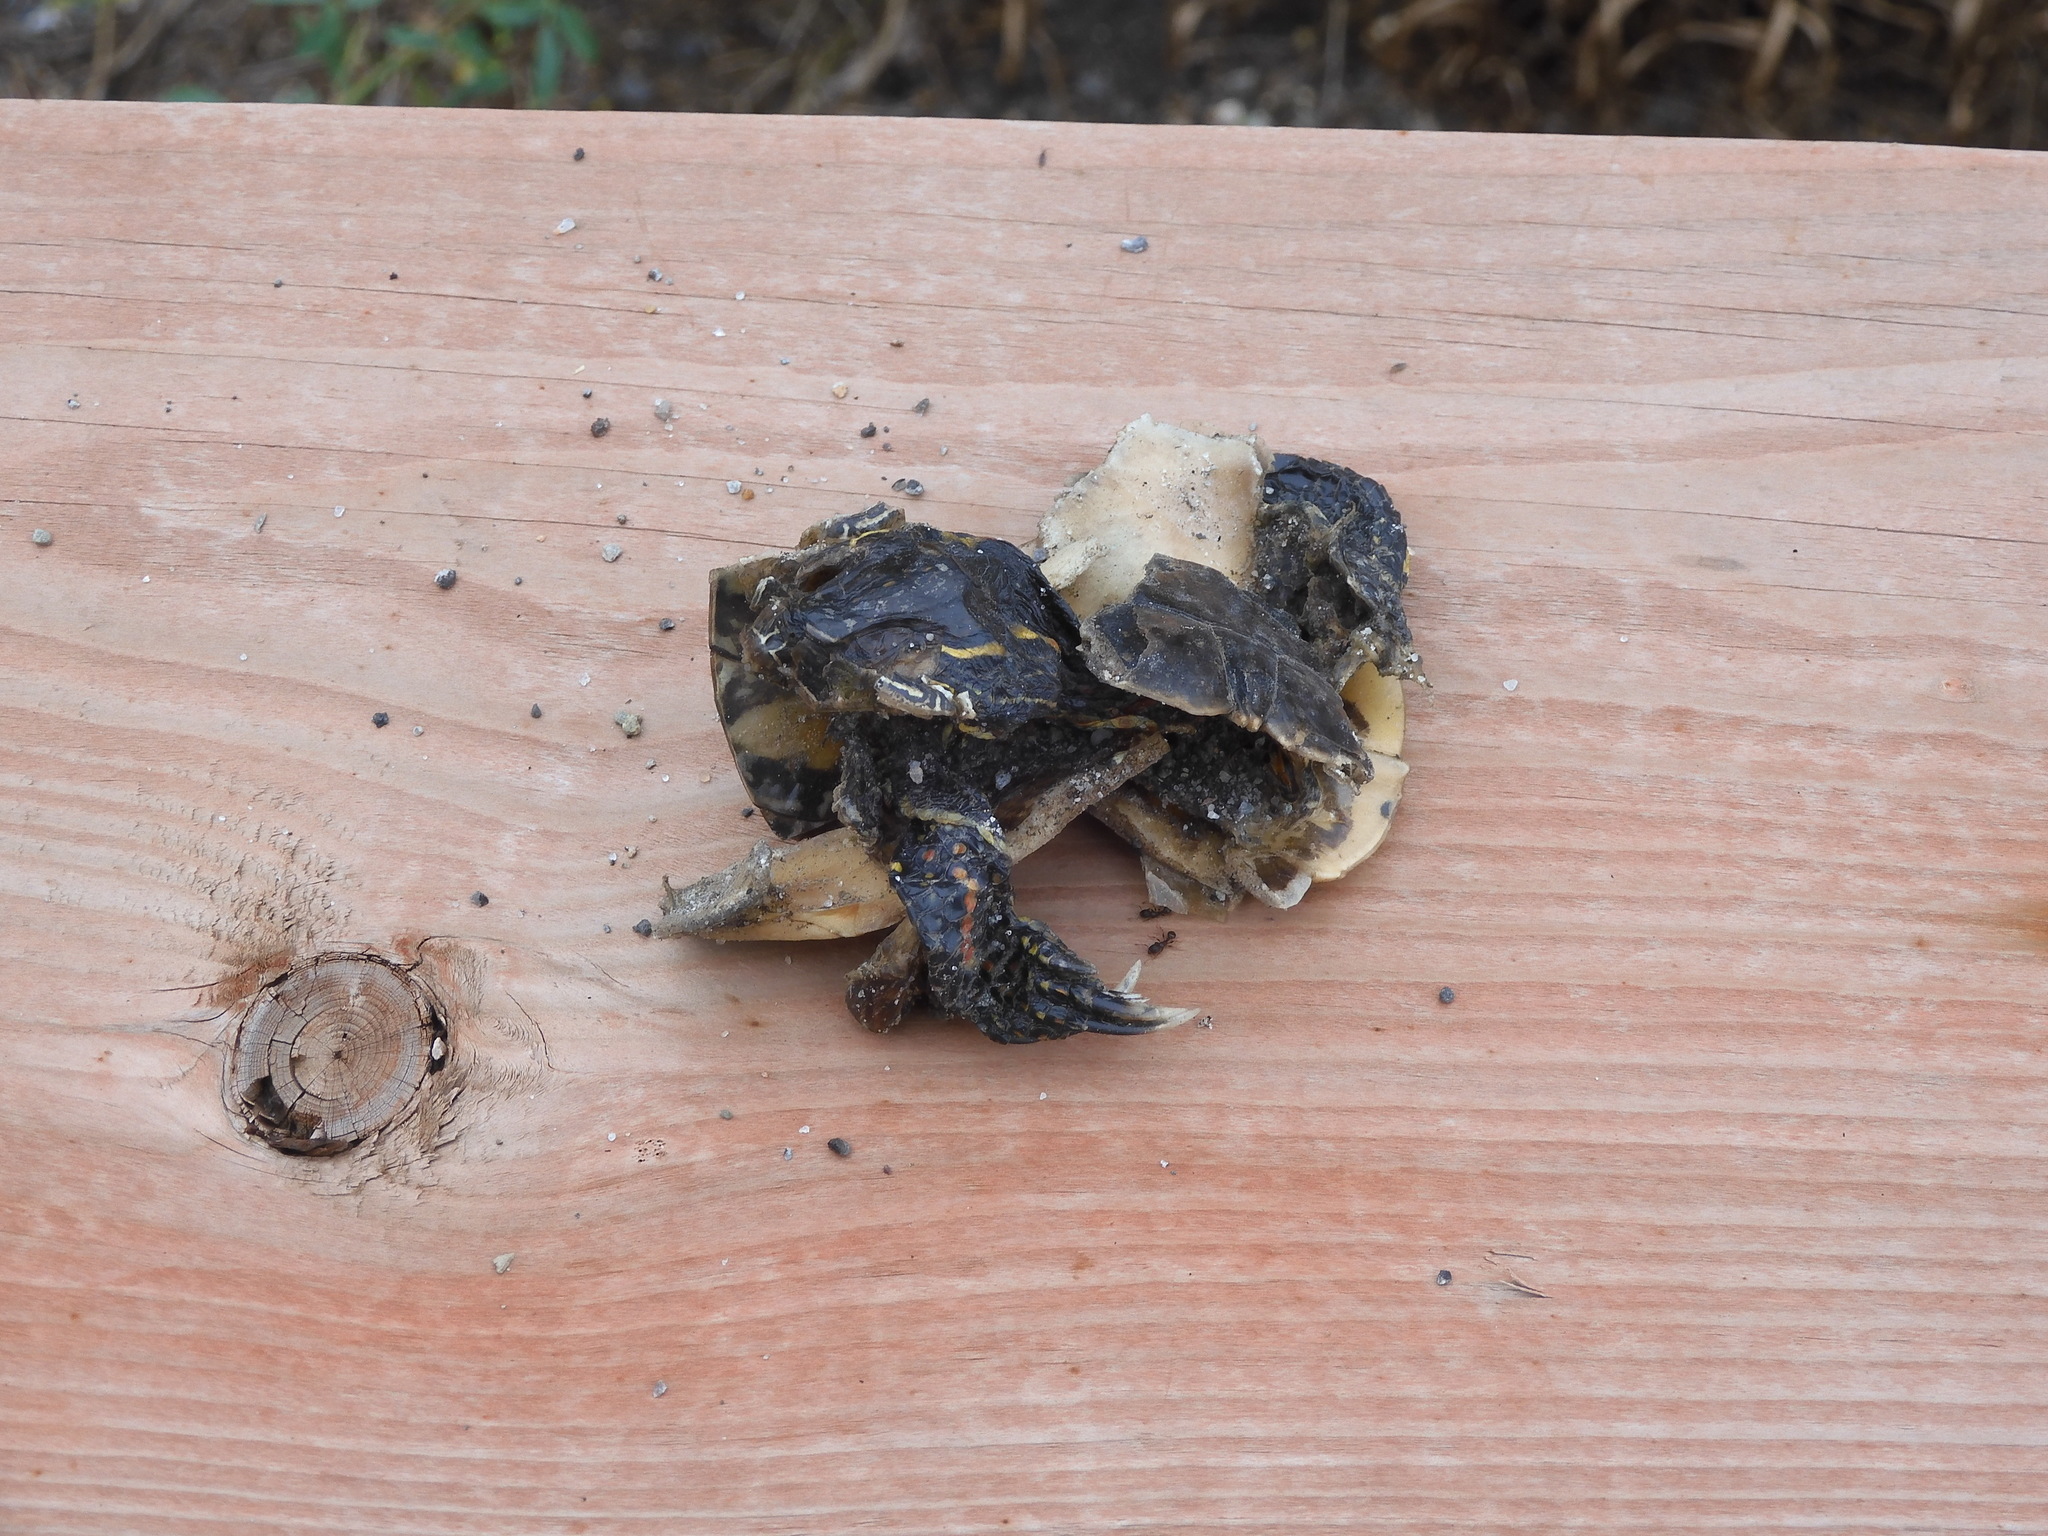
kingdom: Animalia
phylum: Chordata
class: Testudines
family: Emydidae
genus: Chrysemys
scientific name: Chrysemys picta
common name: Painted turtle
